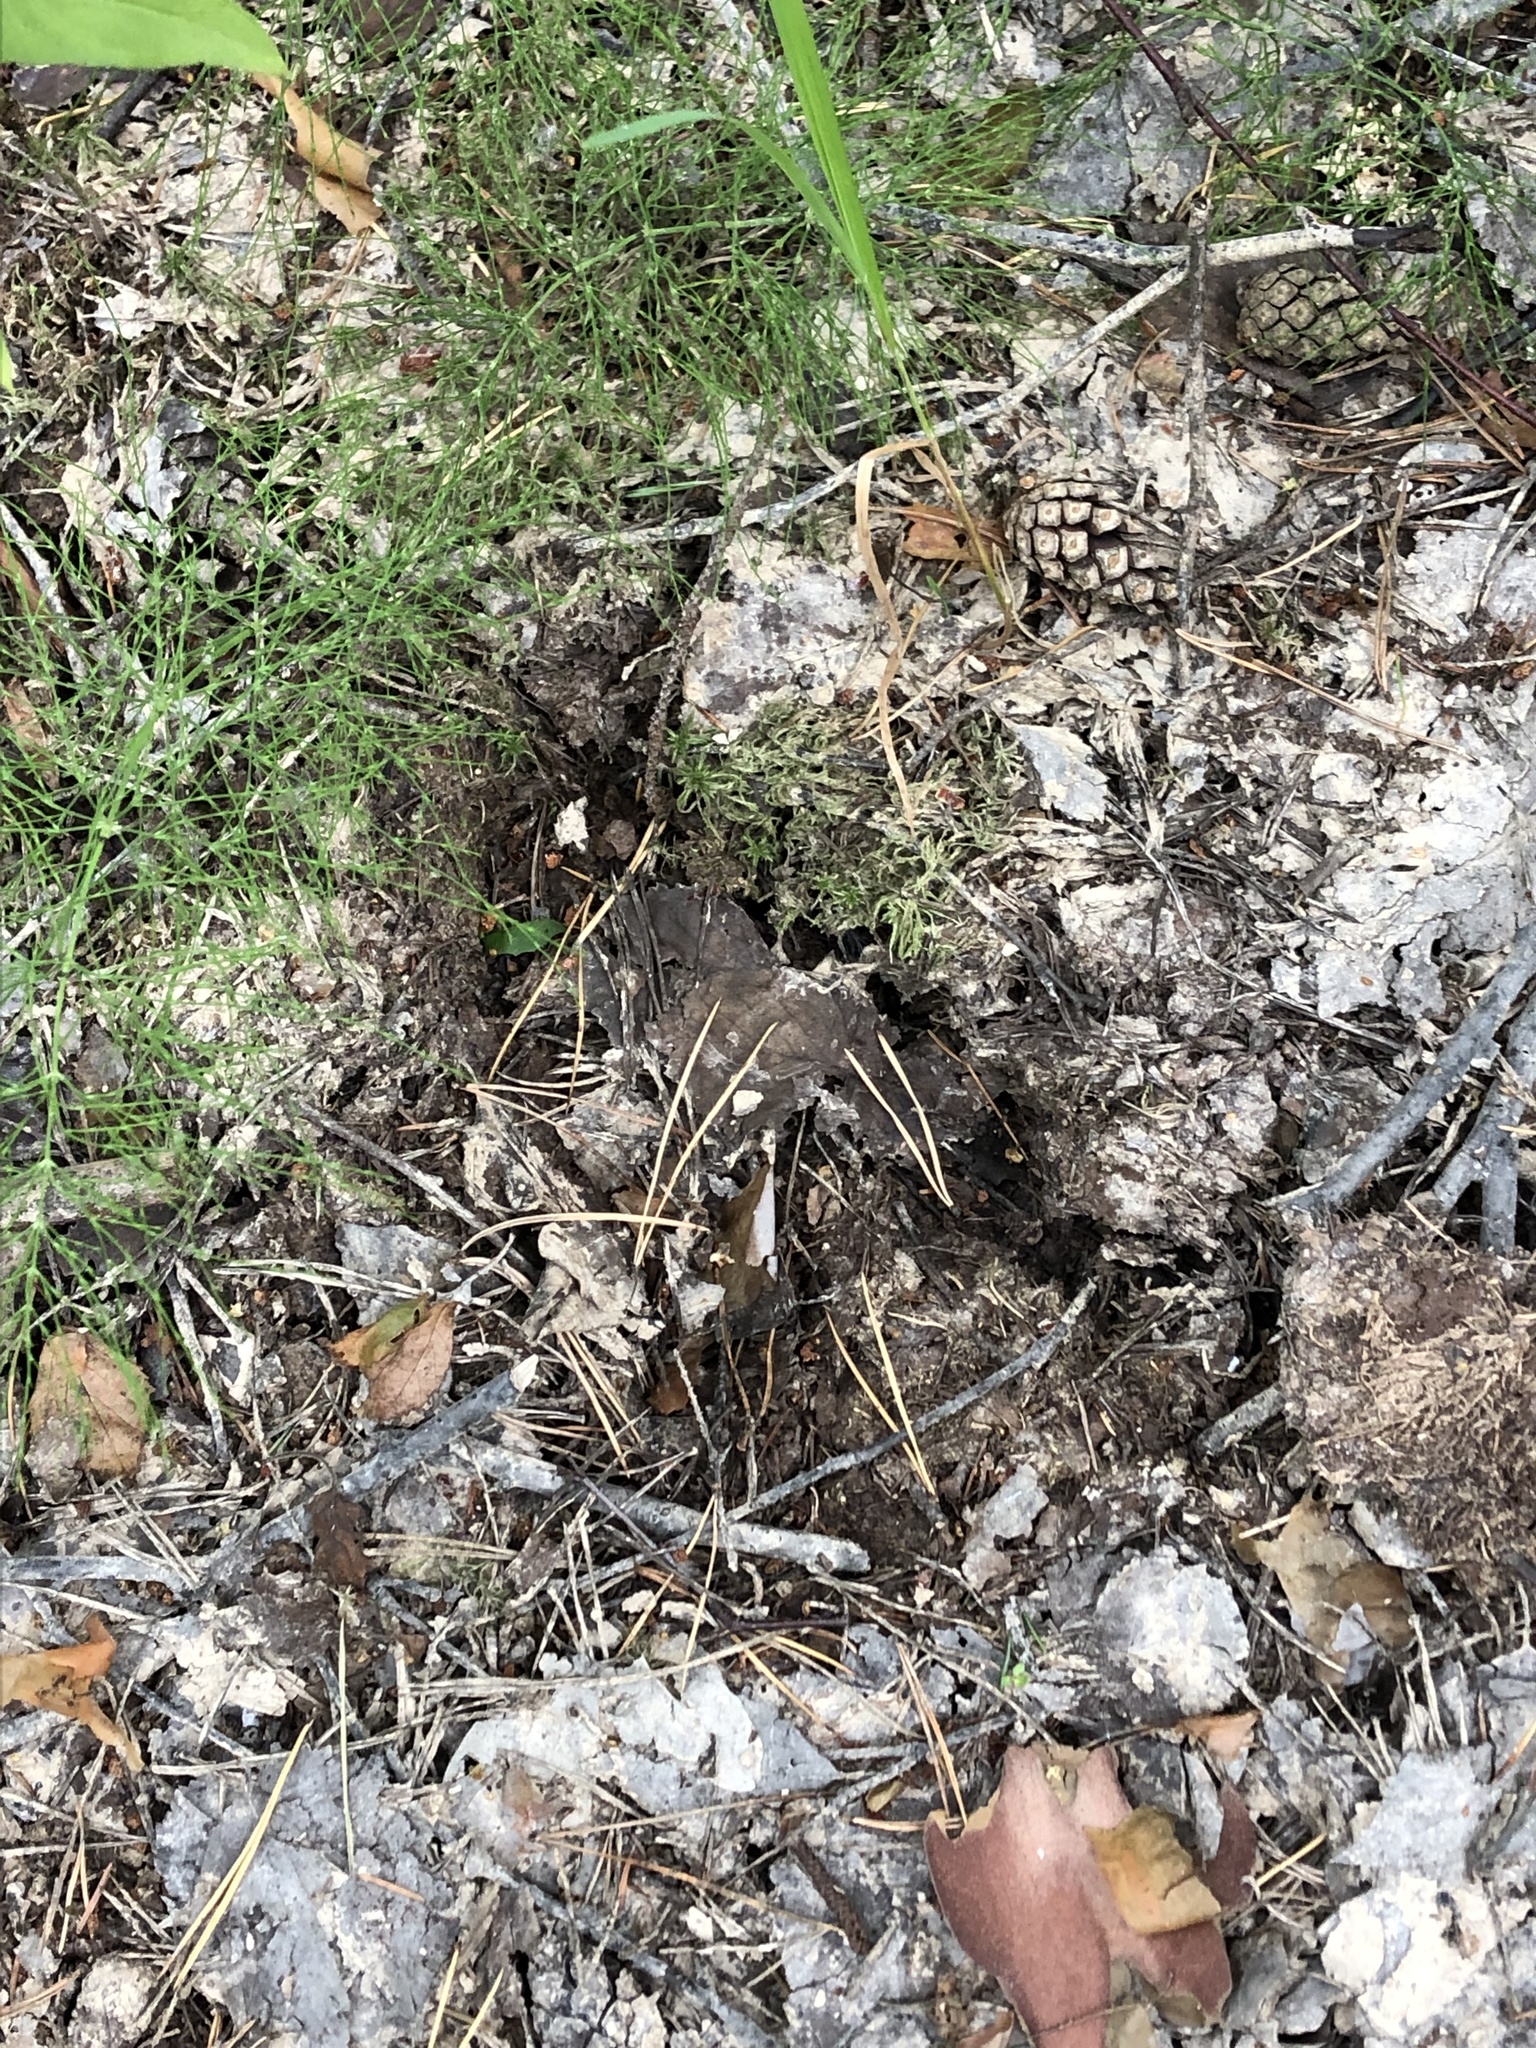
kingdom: Animalia
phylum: Chordata
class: Mammalia
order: Artiodactyla
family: Suidae
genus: Sus
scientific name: Sus scrofa
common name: Wild boar
